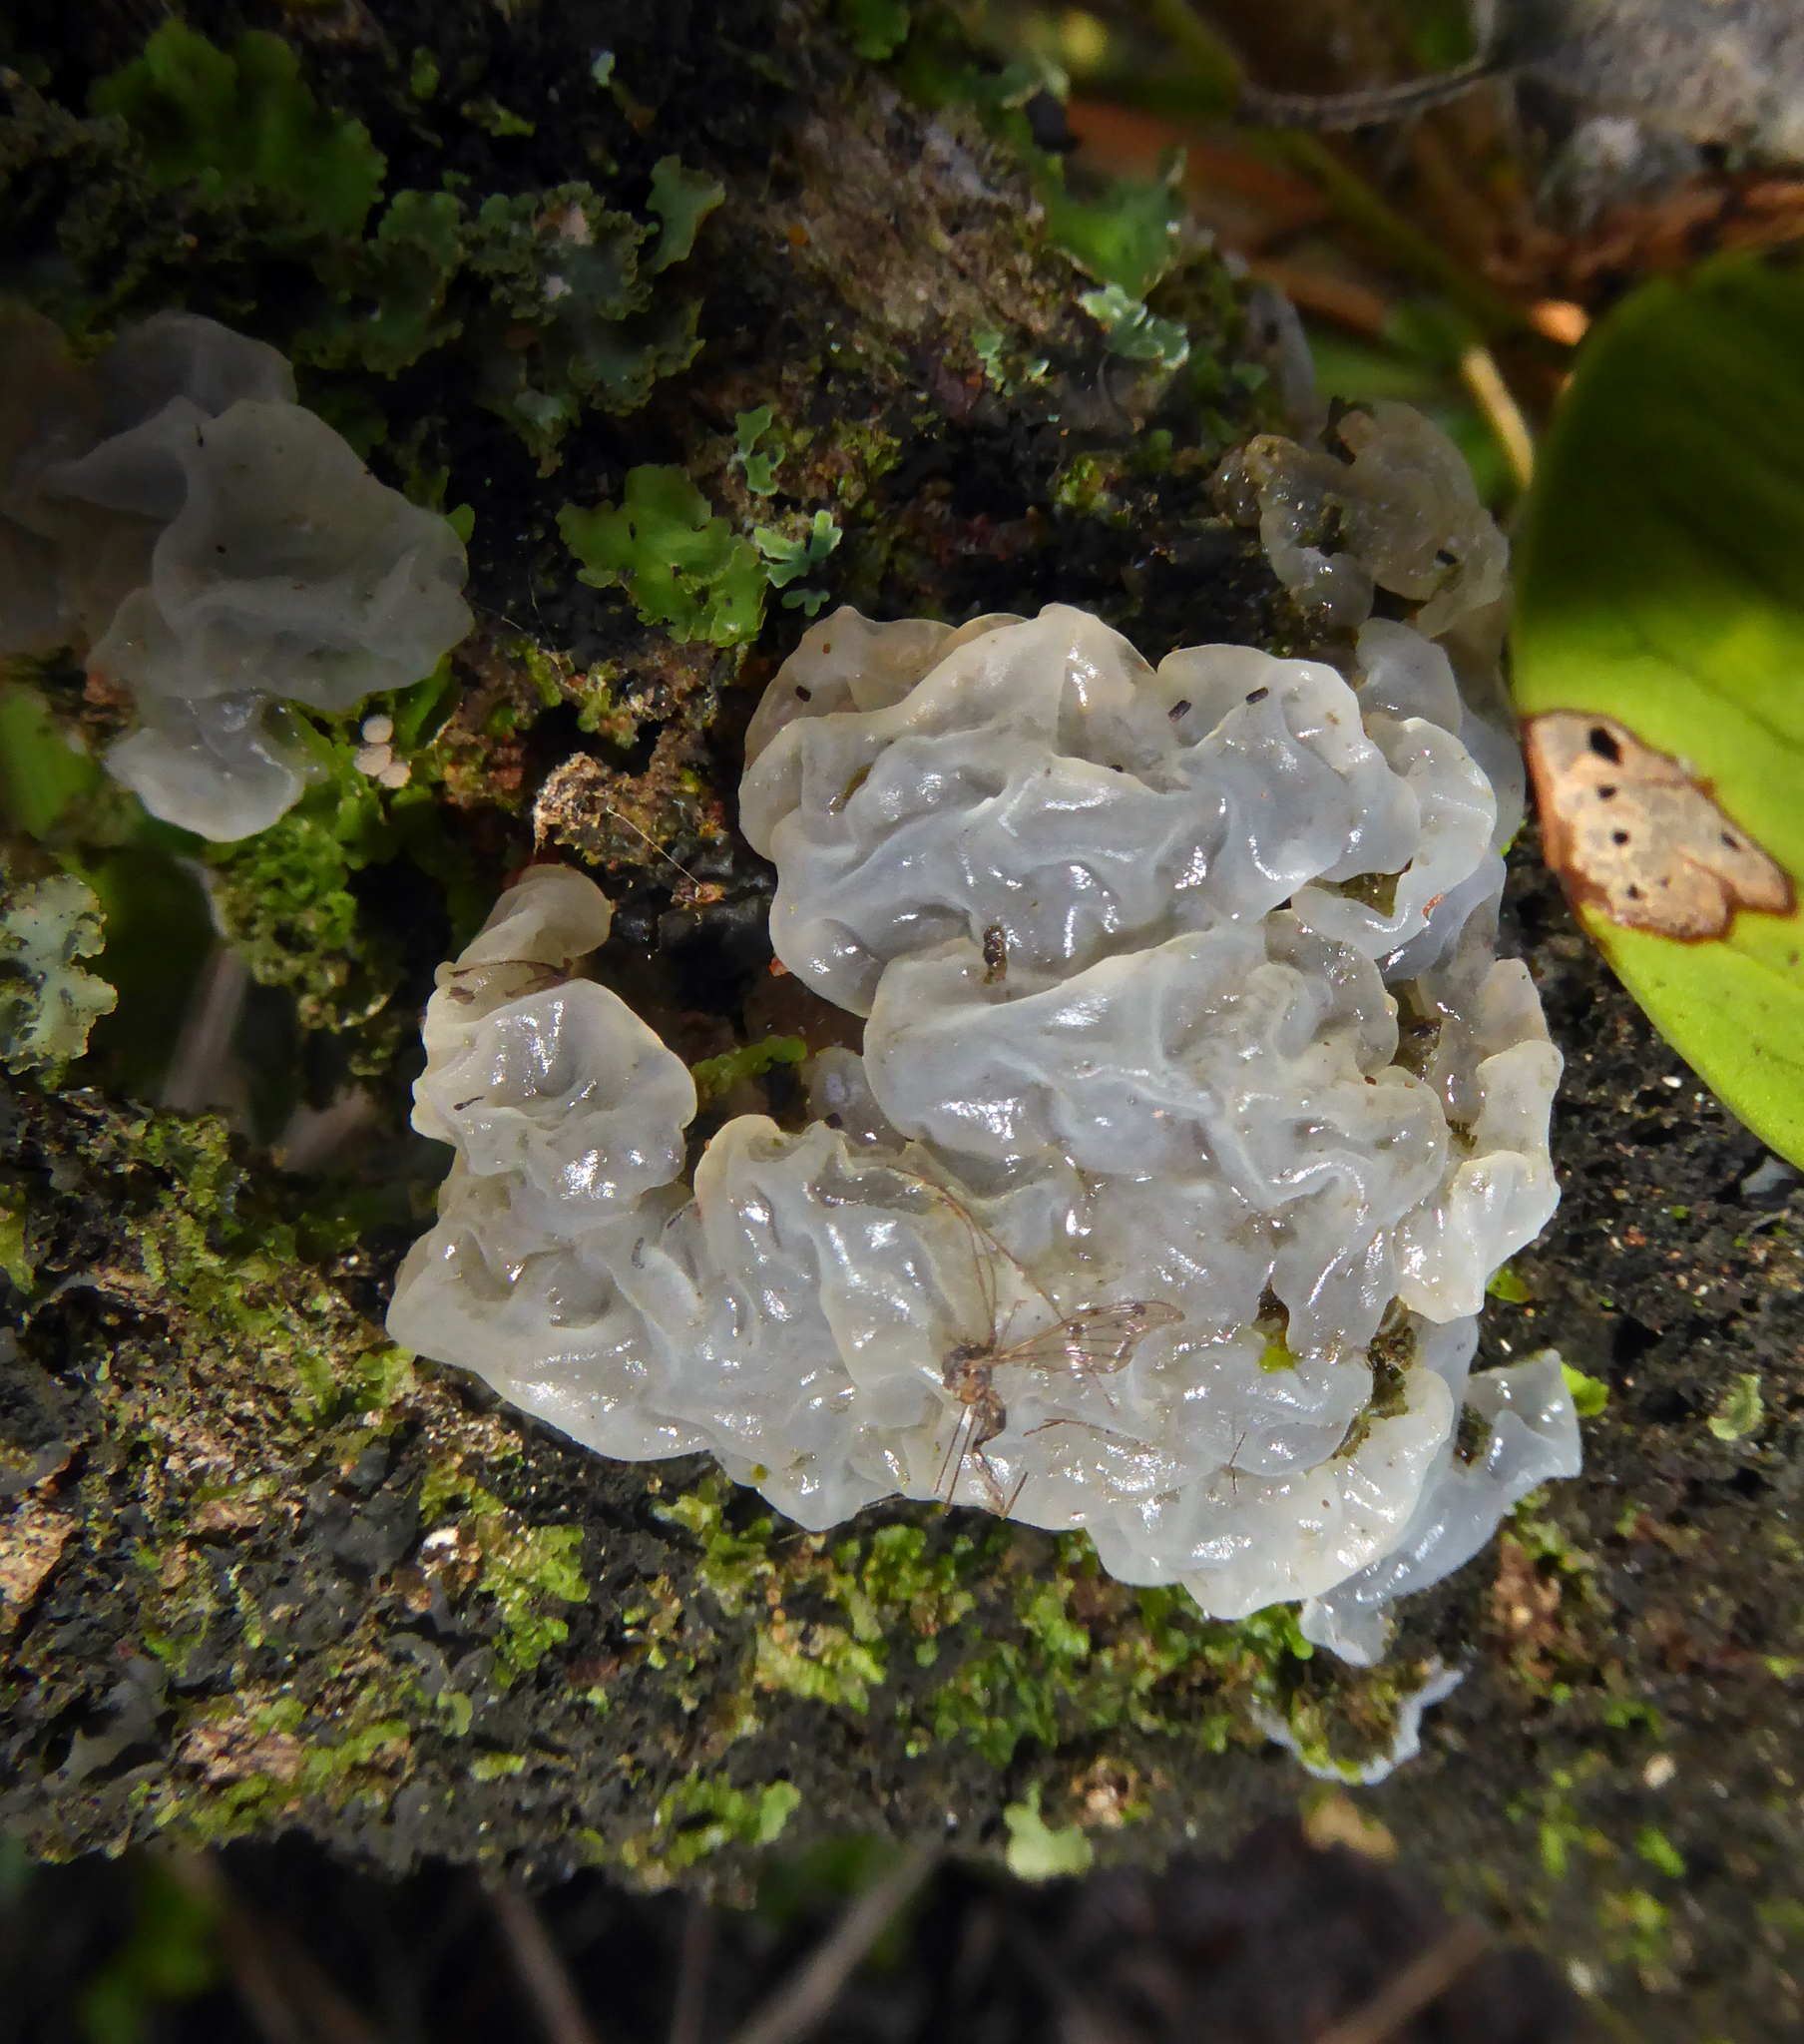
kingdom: Fungi
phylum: Basidiomycota
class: Tremellomycetes
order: Tremellales
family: Tremellaceae
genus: Tremella
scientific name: Tremella fuciformis
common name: Snow fungus
